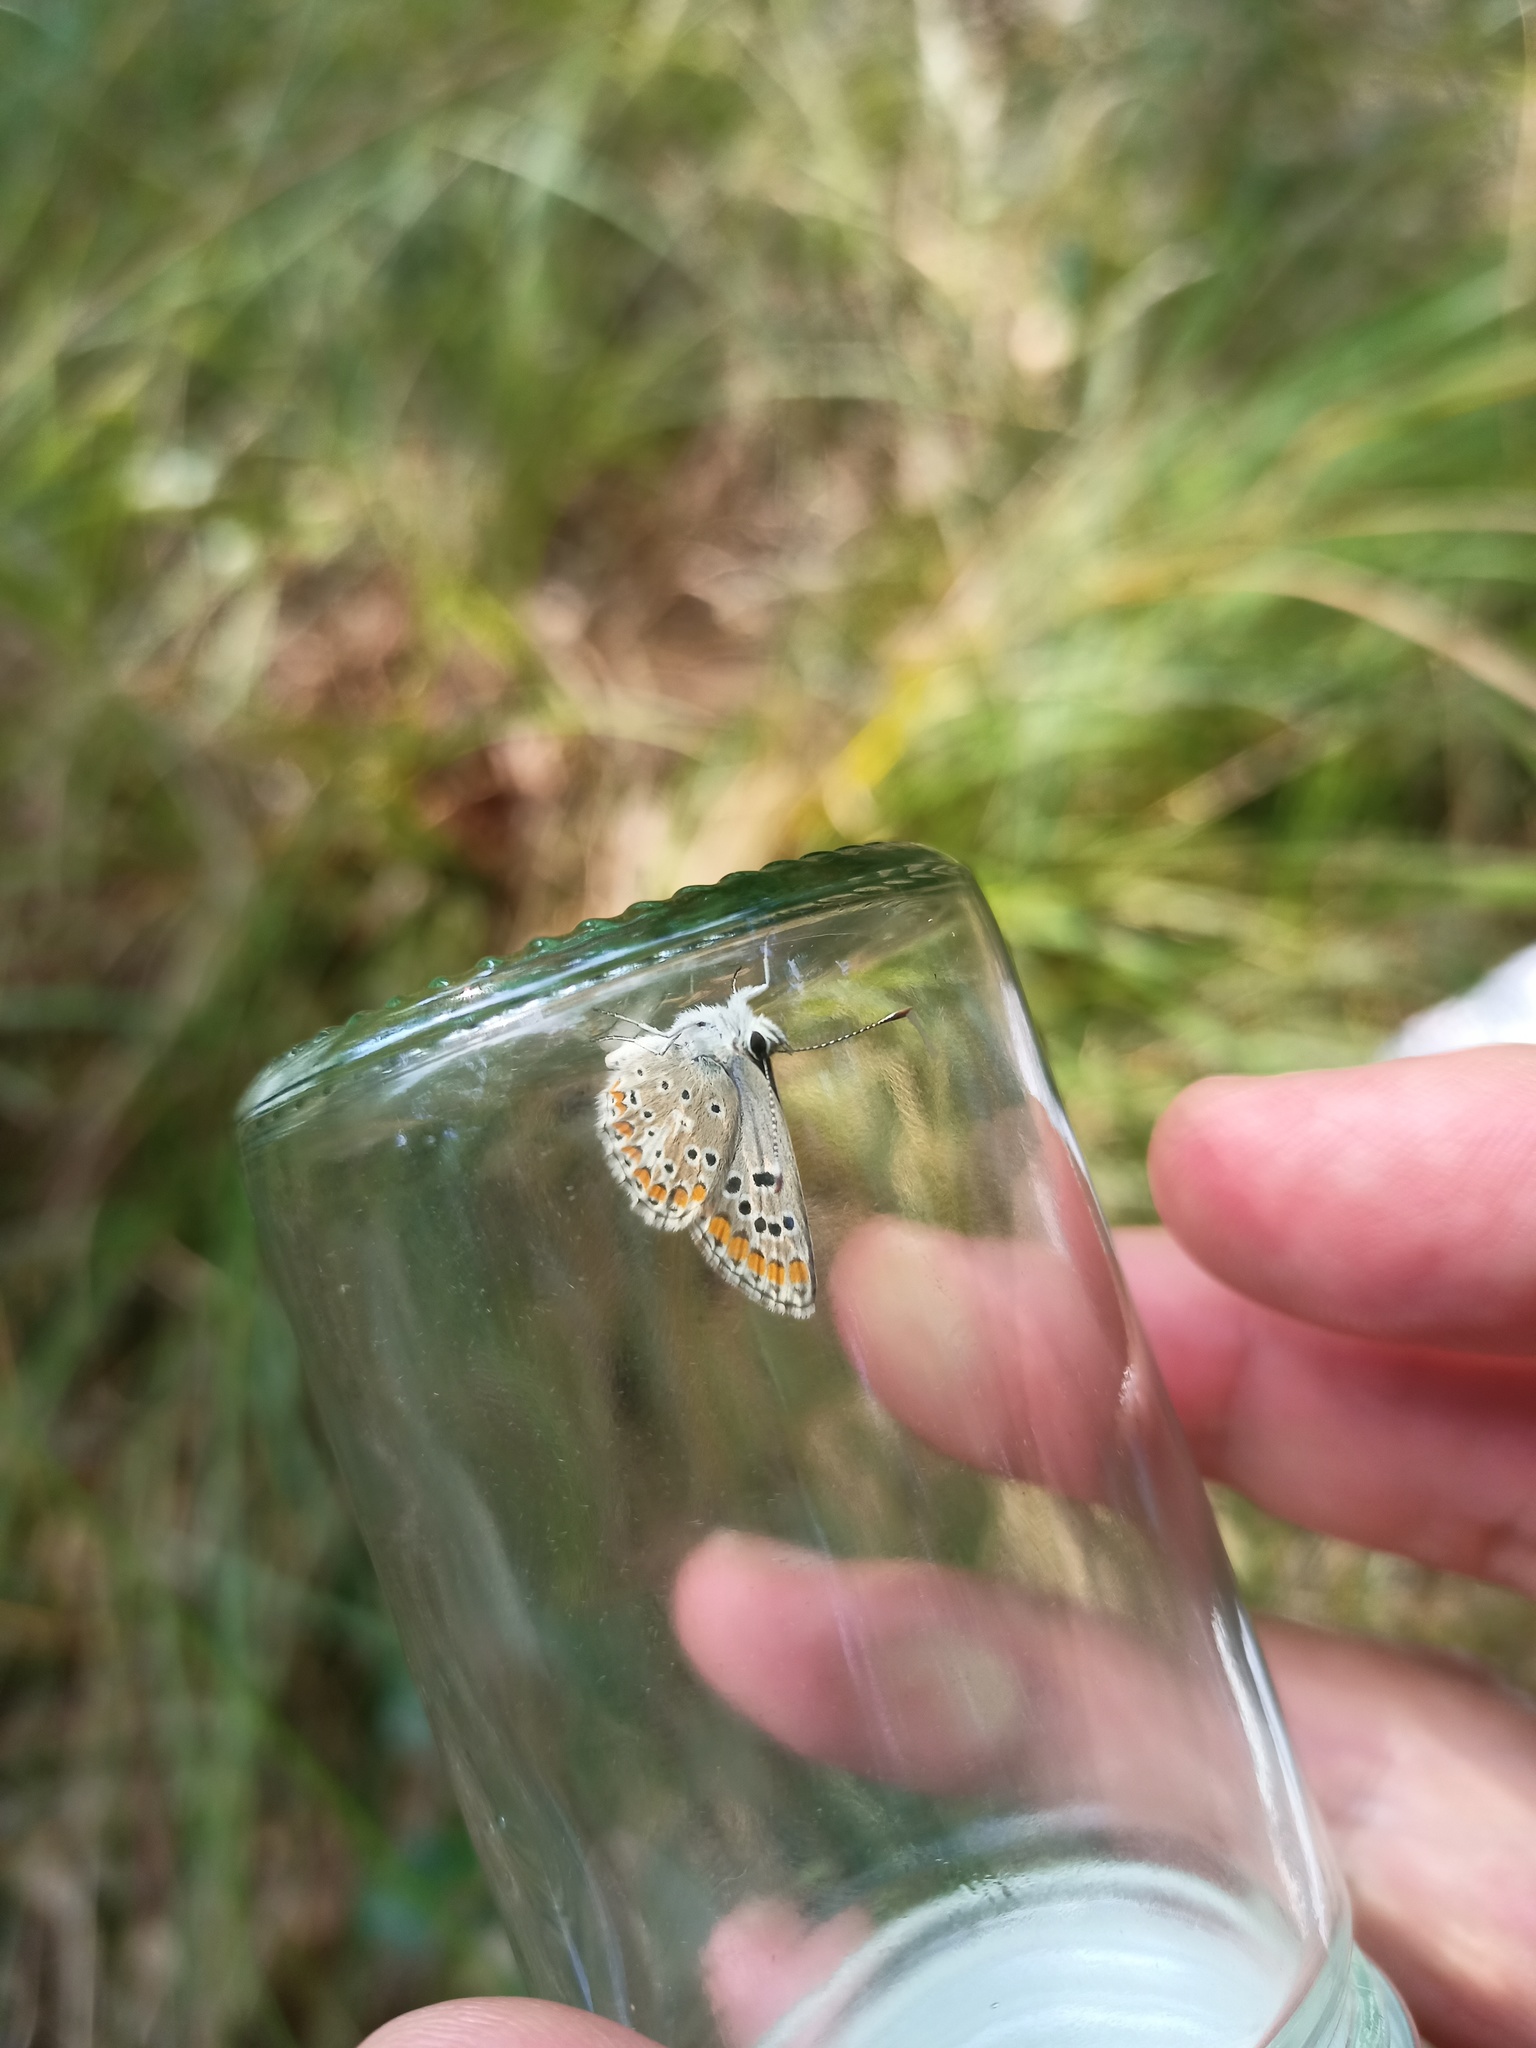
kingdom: Animalia
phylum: Arthropoda
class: Insecta
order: Lepidoptera
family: Lycaenidae
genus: Aricia
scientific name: Aricia agestis
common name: Brown argus
